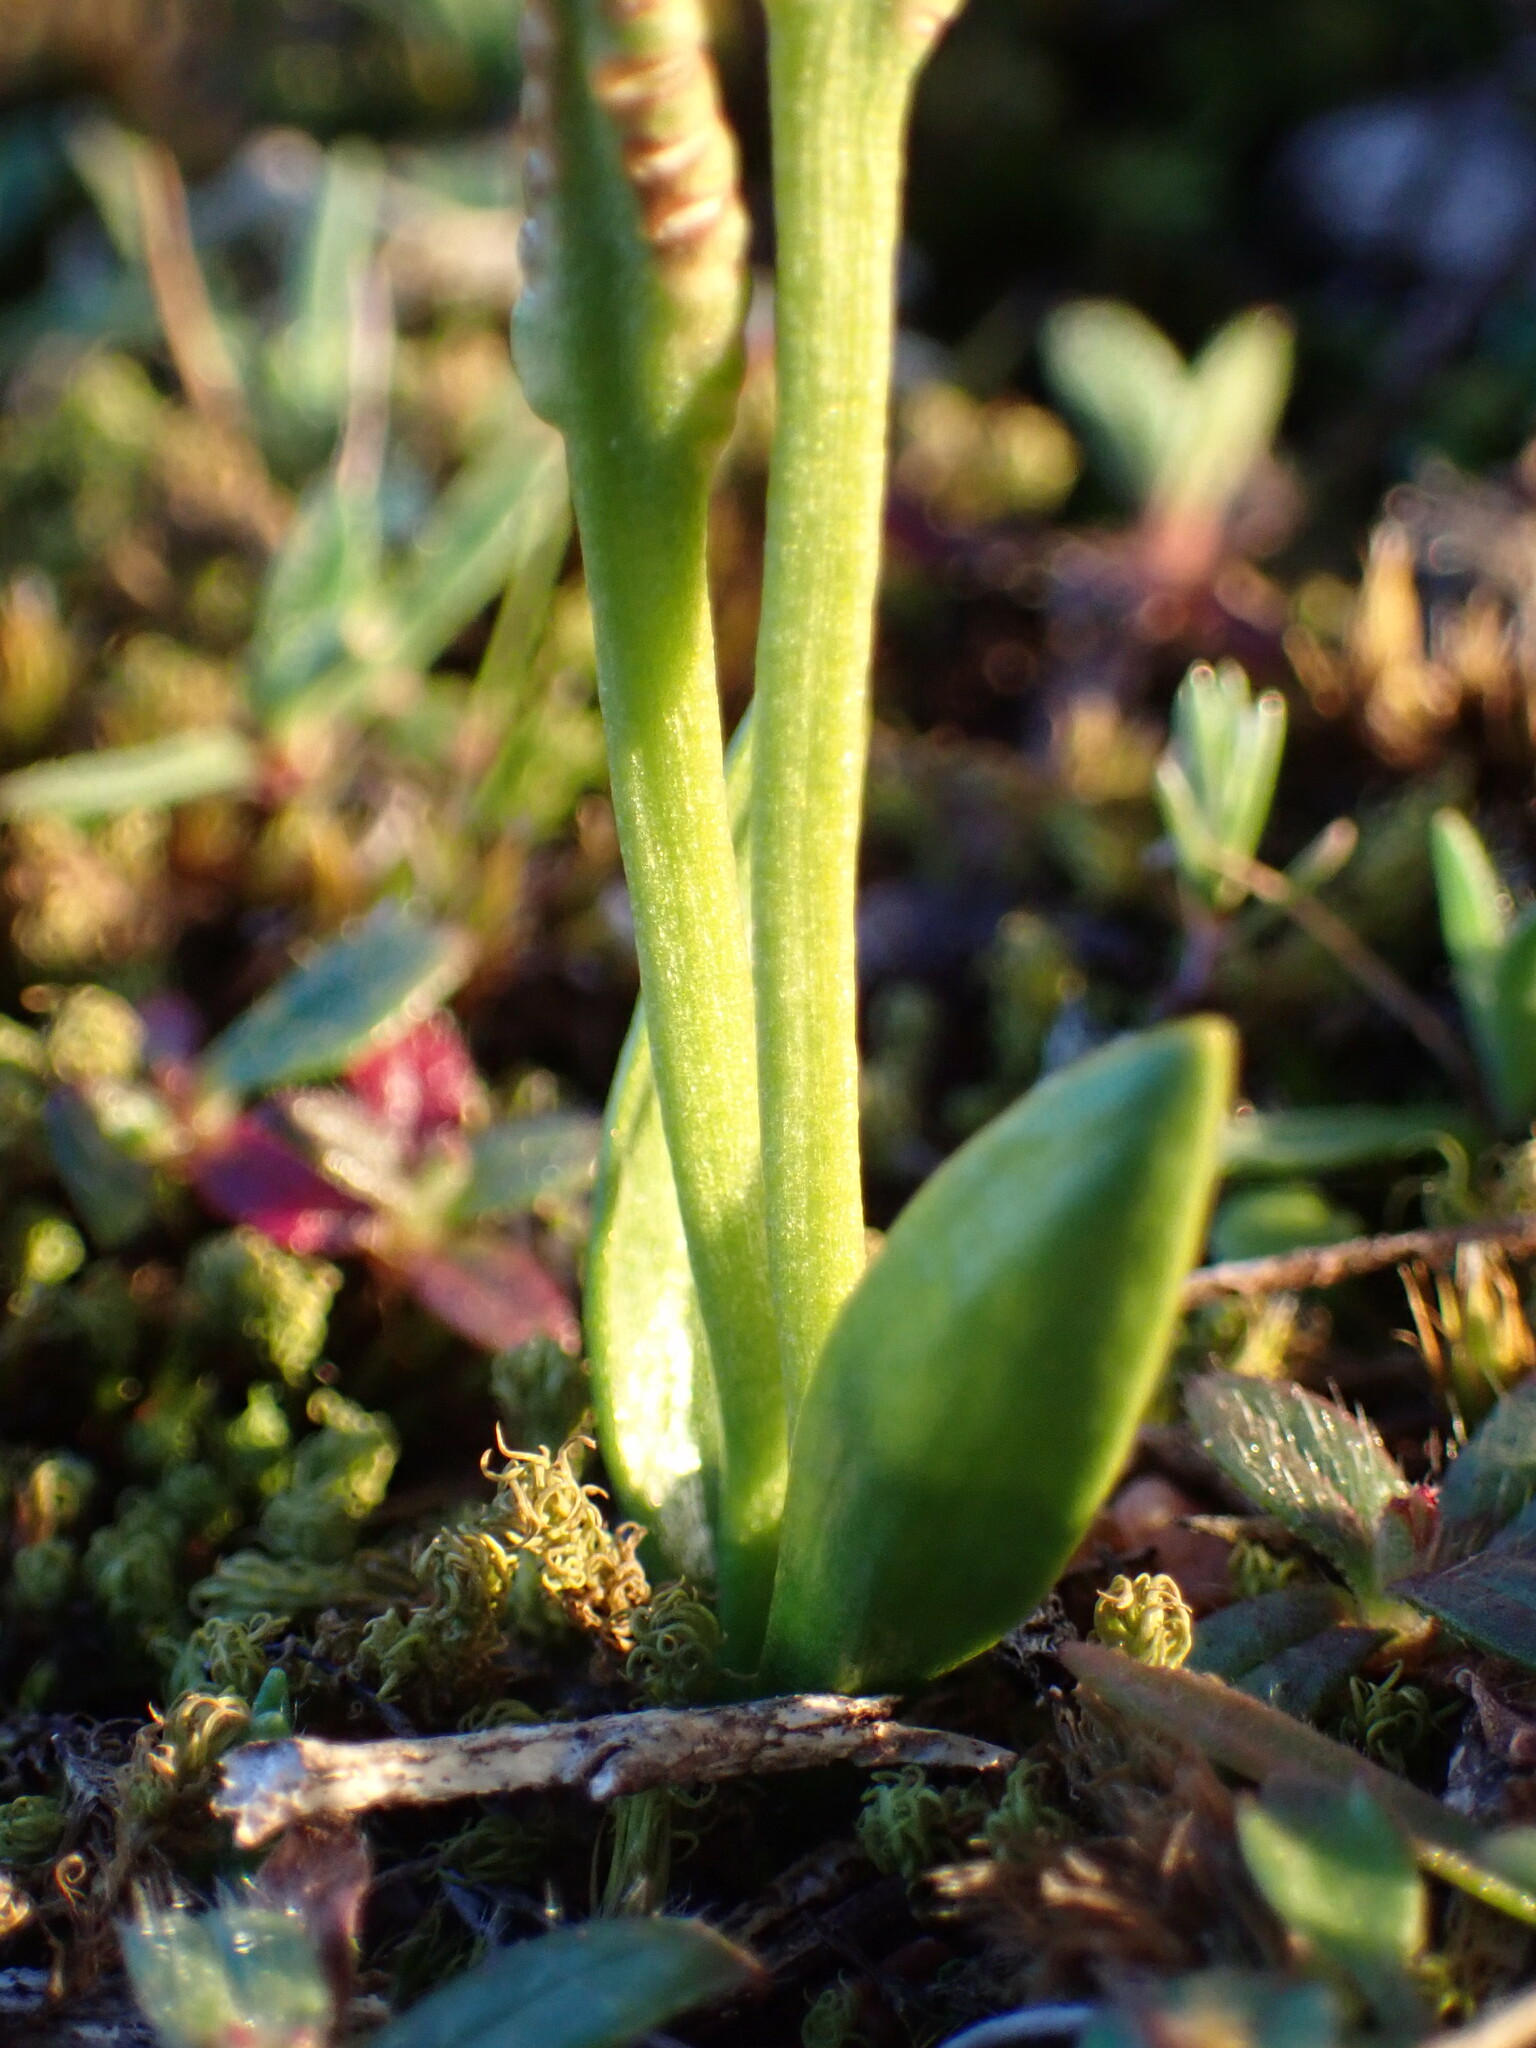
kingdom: Plantae
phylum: Tracheophyta
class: Polypodiopsida
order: Ophioglossales
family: Ophioglossaceae
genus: Ophioglossum
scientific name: Ophioglossum lusitanicum
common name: Least adder's-tongue
